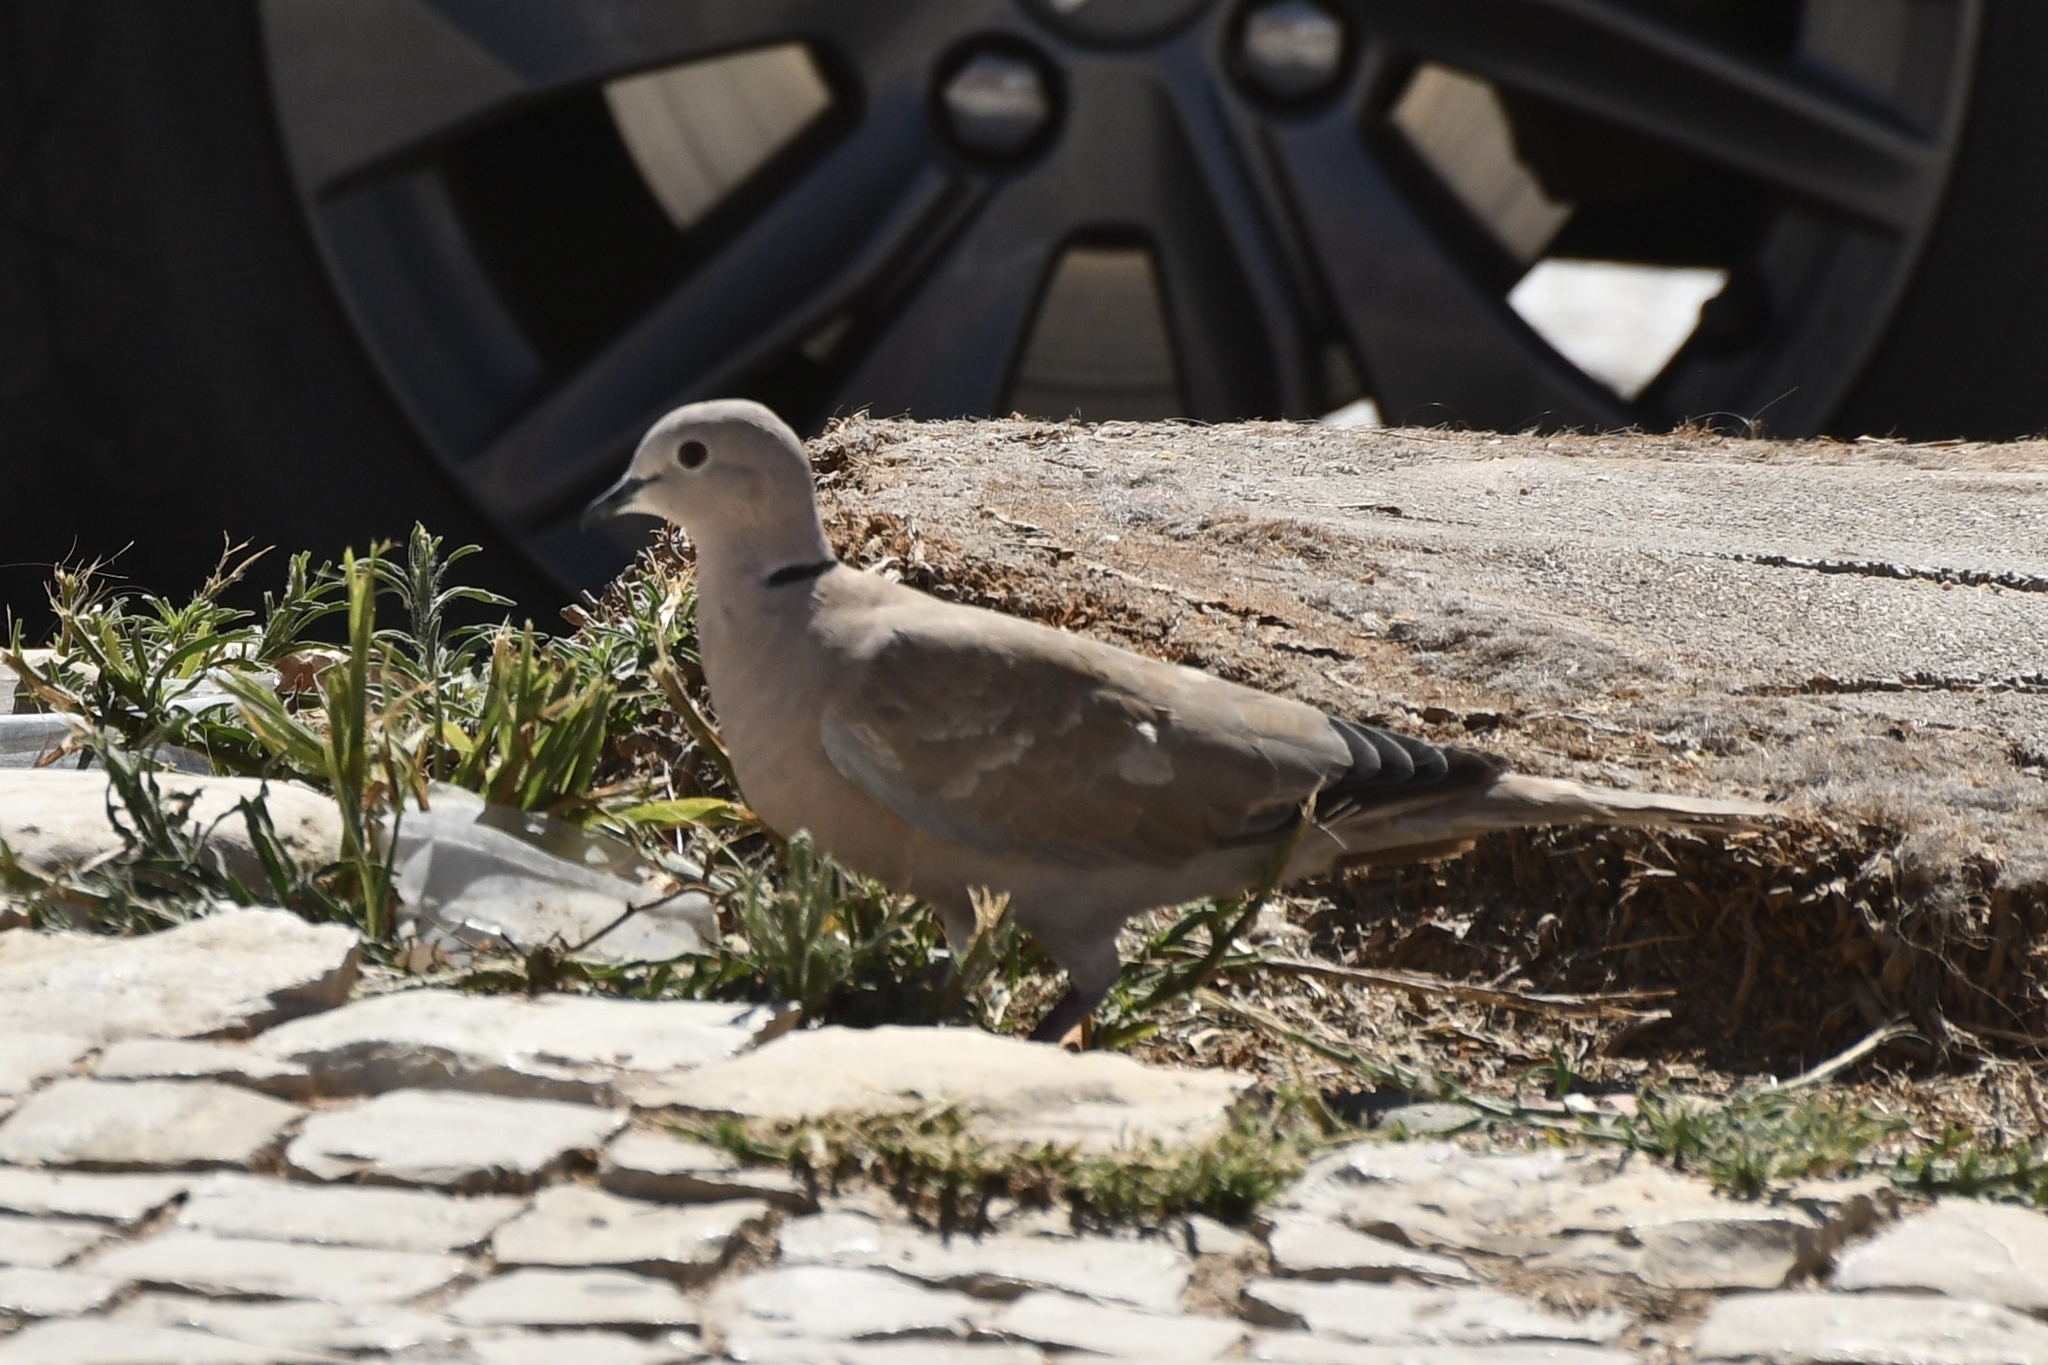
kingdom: Animalia
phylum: Chordata
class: Aves
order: Columbiformes
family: Columbidae
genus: Streptopelia
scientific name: Streptopelia decaocto
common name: Eurasian collared dove
